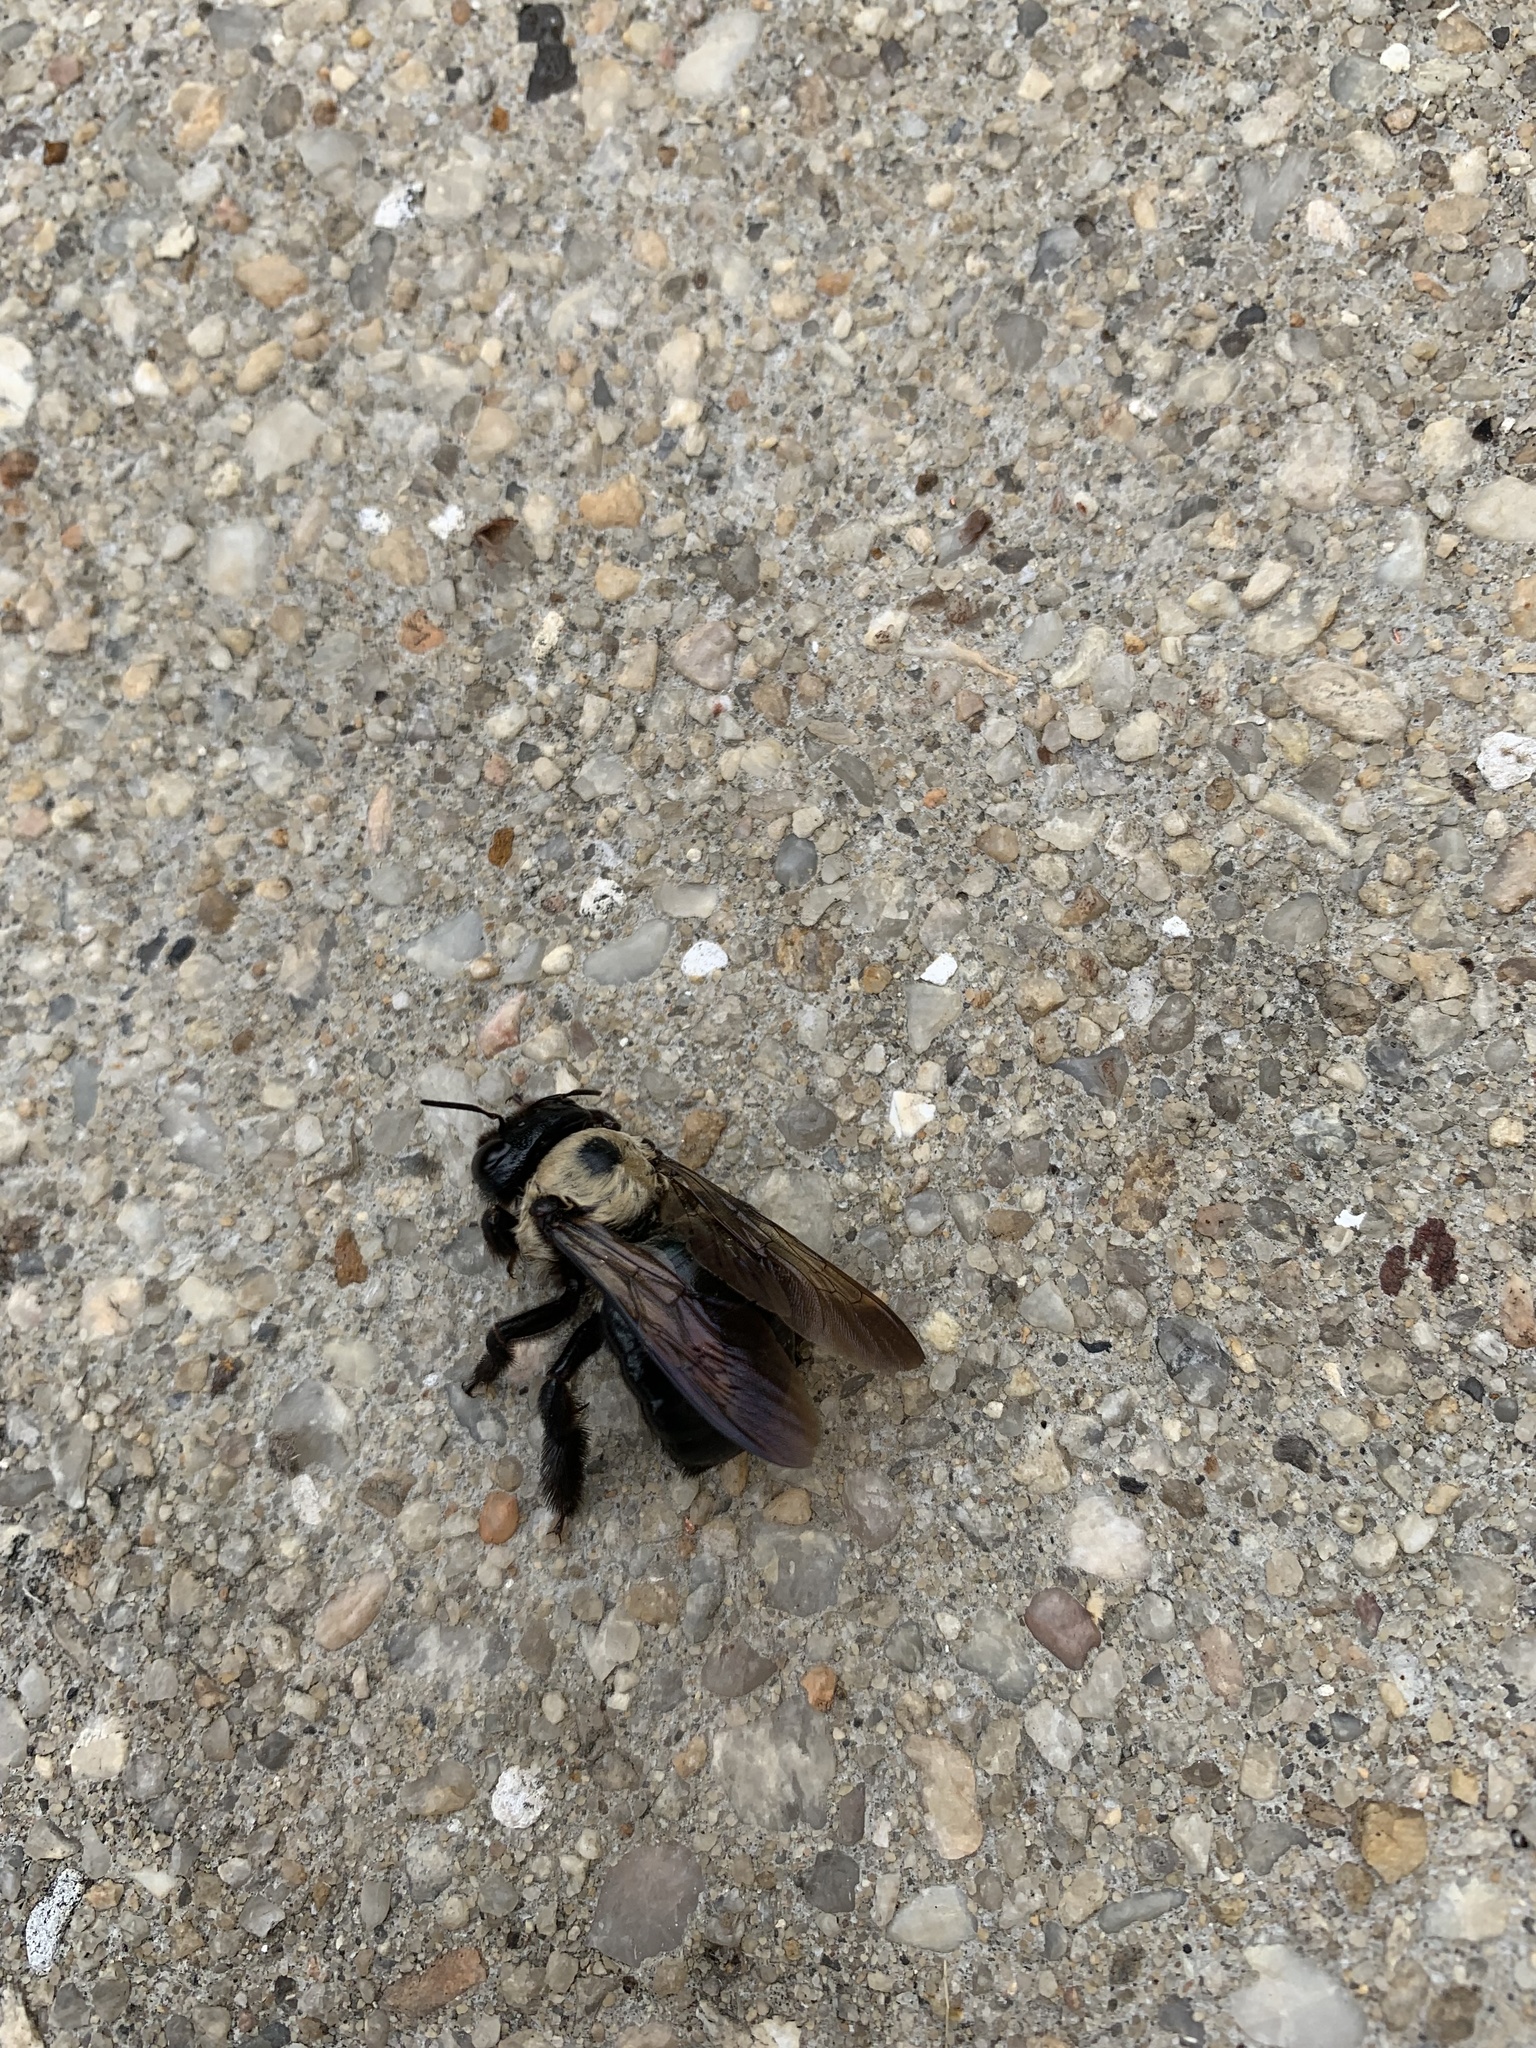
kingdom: Animalia
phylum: Arthropoda
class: Insecta
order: Hymenoptera
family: Apidae
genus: Xylocopa
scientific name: Xylocopa virginica
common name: Carpenter bee
